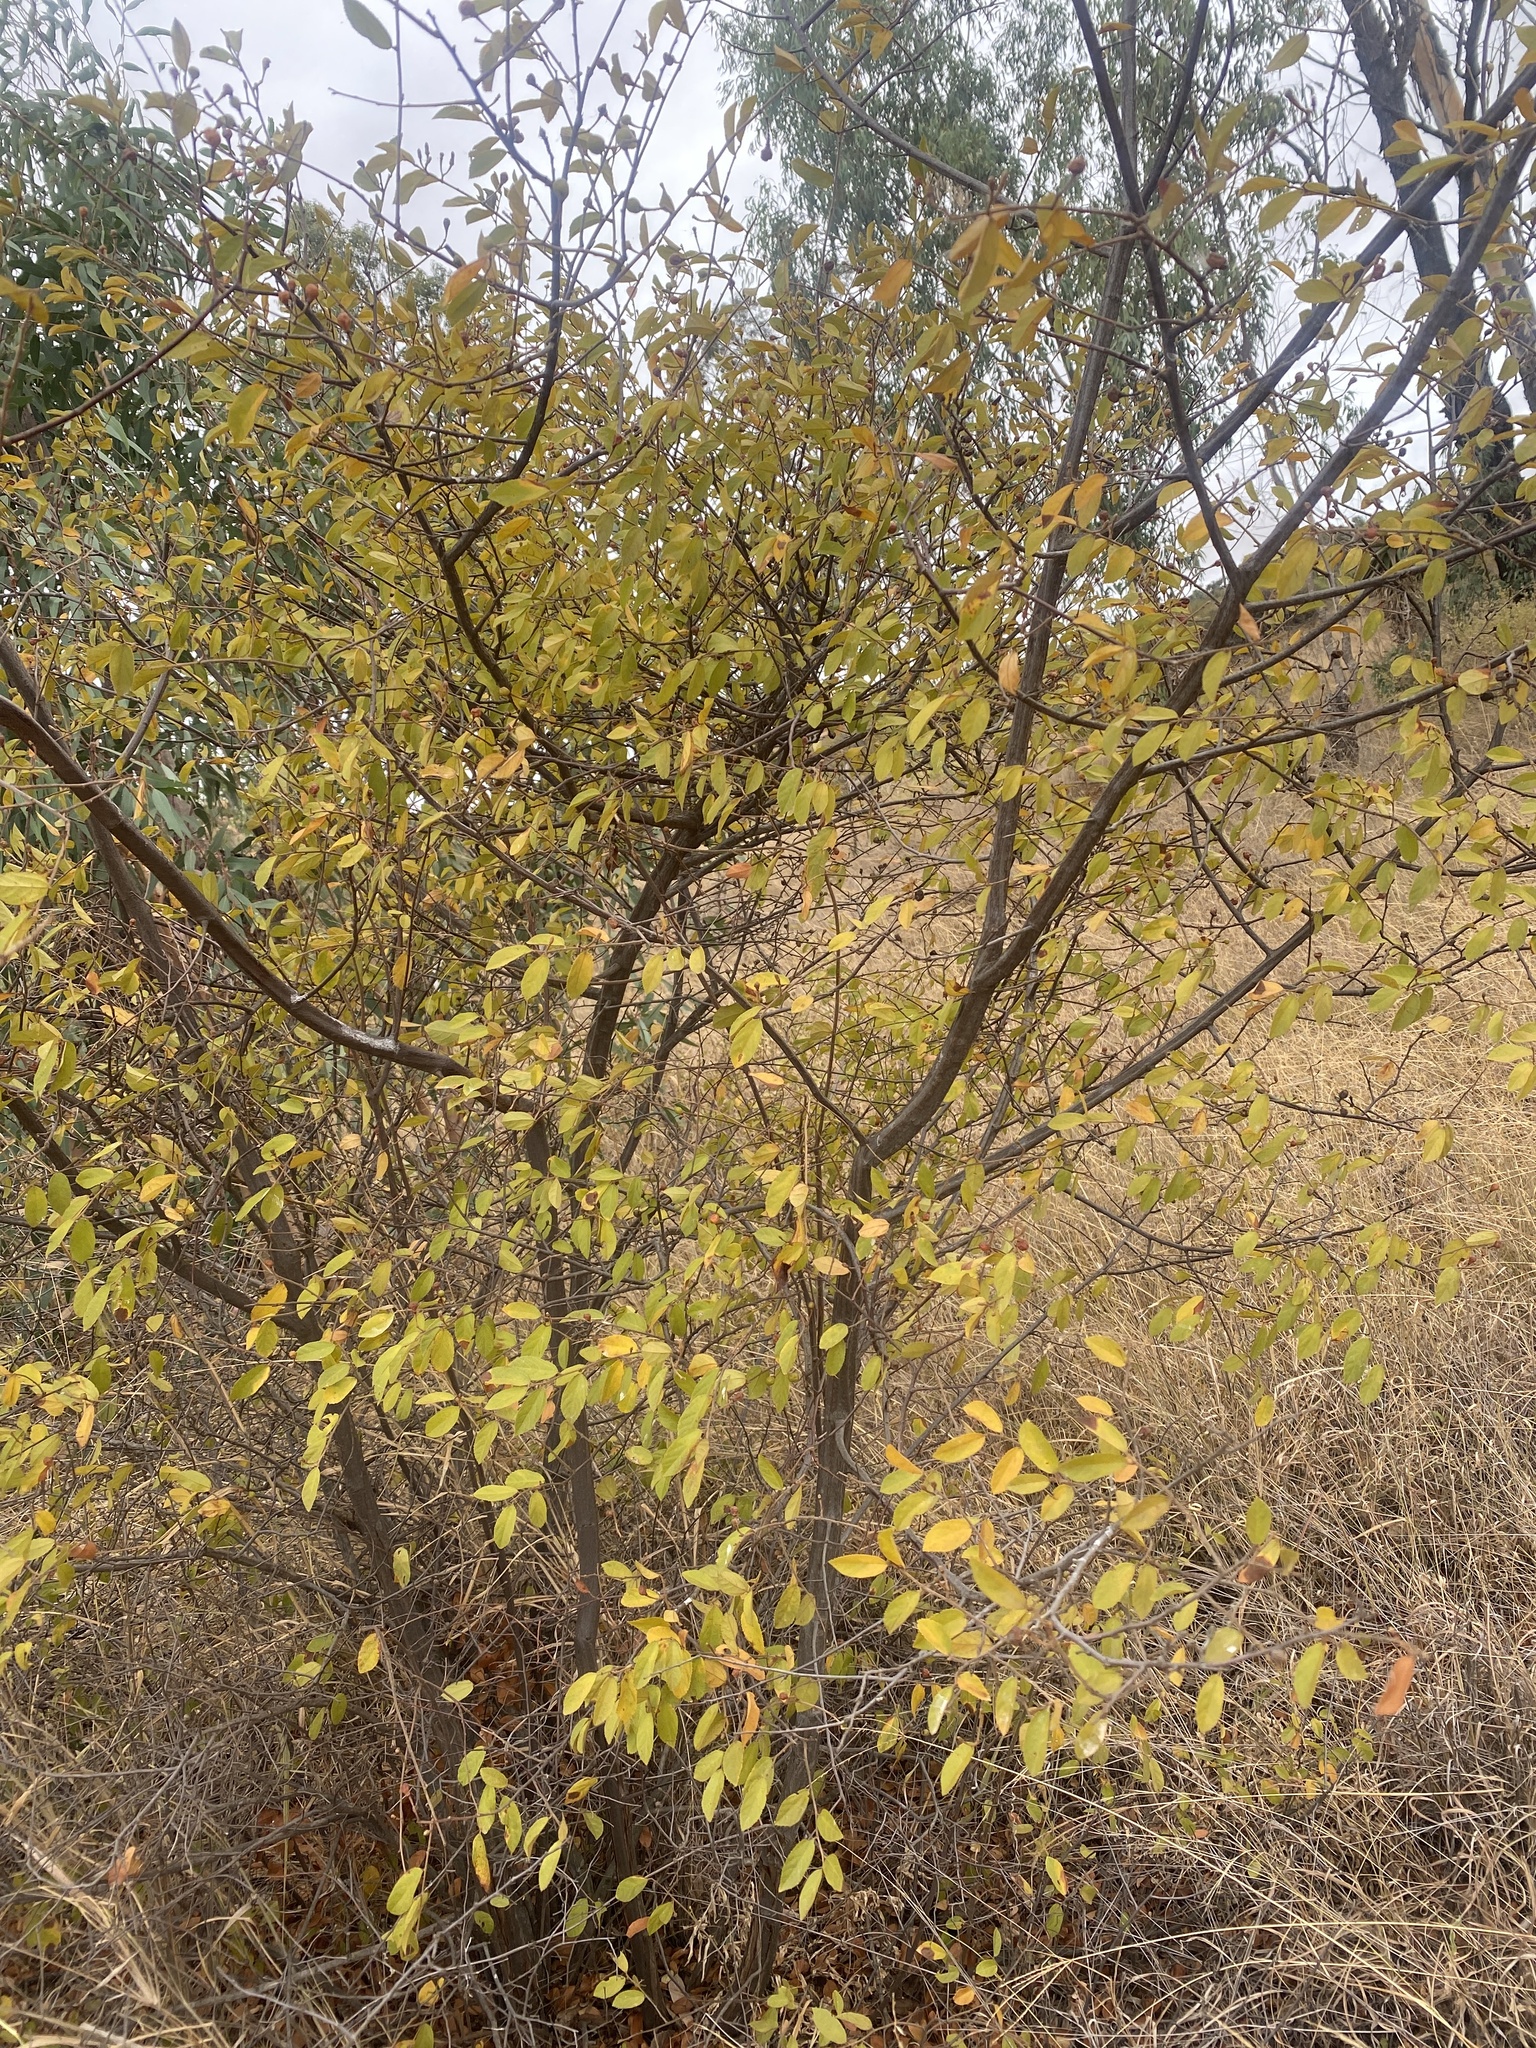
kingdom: Plantae
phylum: Tracheophyta
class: Magnoliopsida
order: Malvales
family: Malvaceae
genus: Grewia
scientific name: Grewia flavescens
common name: Sandpaper raisin
